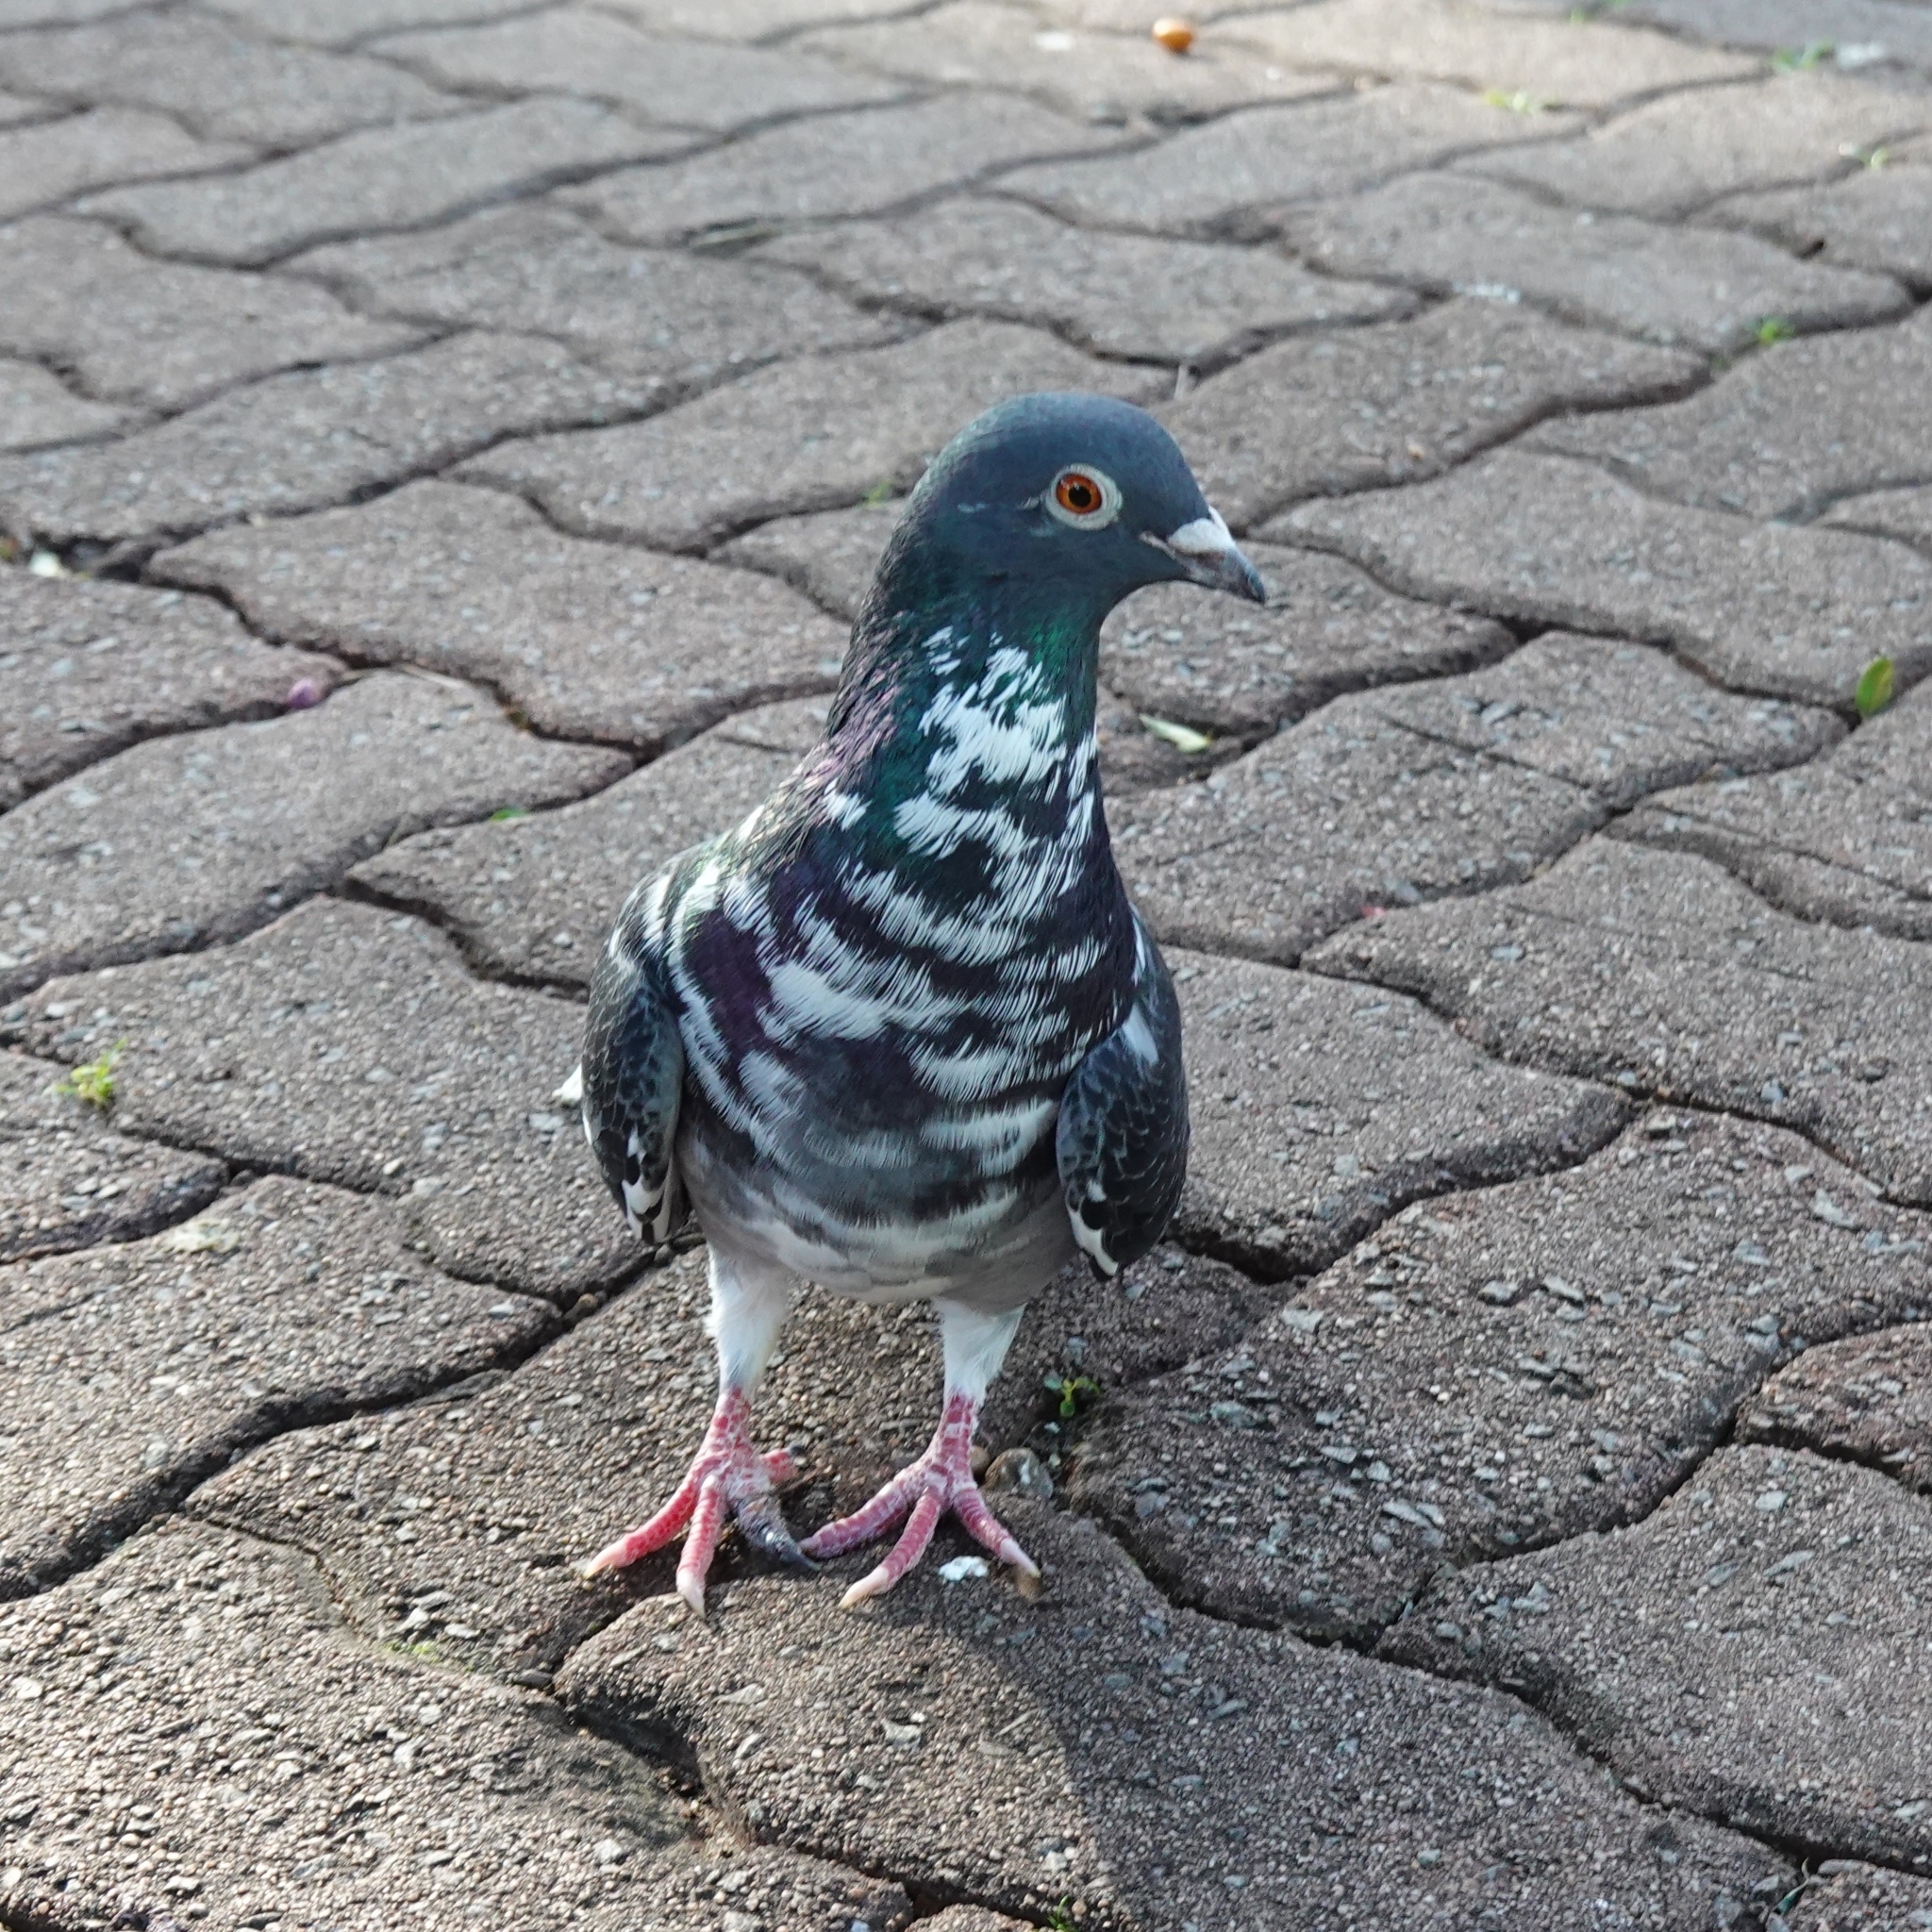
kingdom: Animalia
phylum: Chordata
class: Aves
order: Columbiformes
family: Columbidae
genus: Columba
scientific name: Columba livia
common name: Rock pigeon
